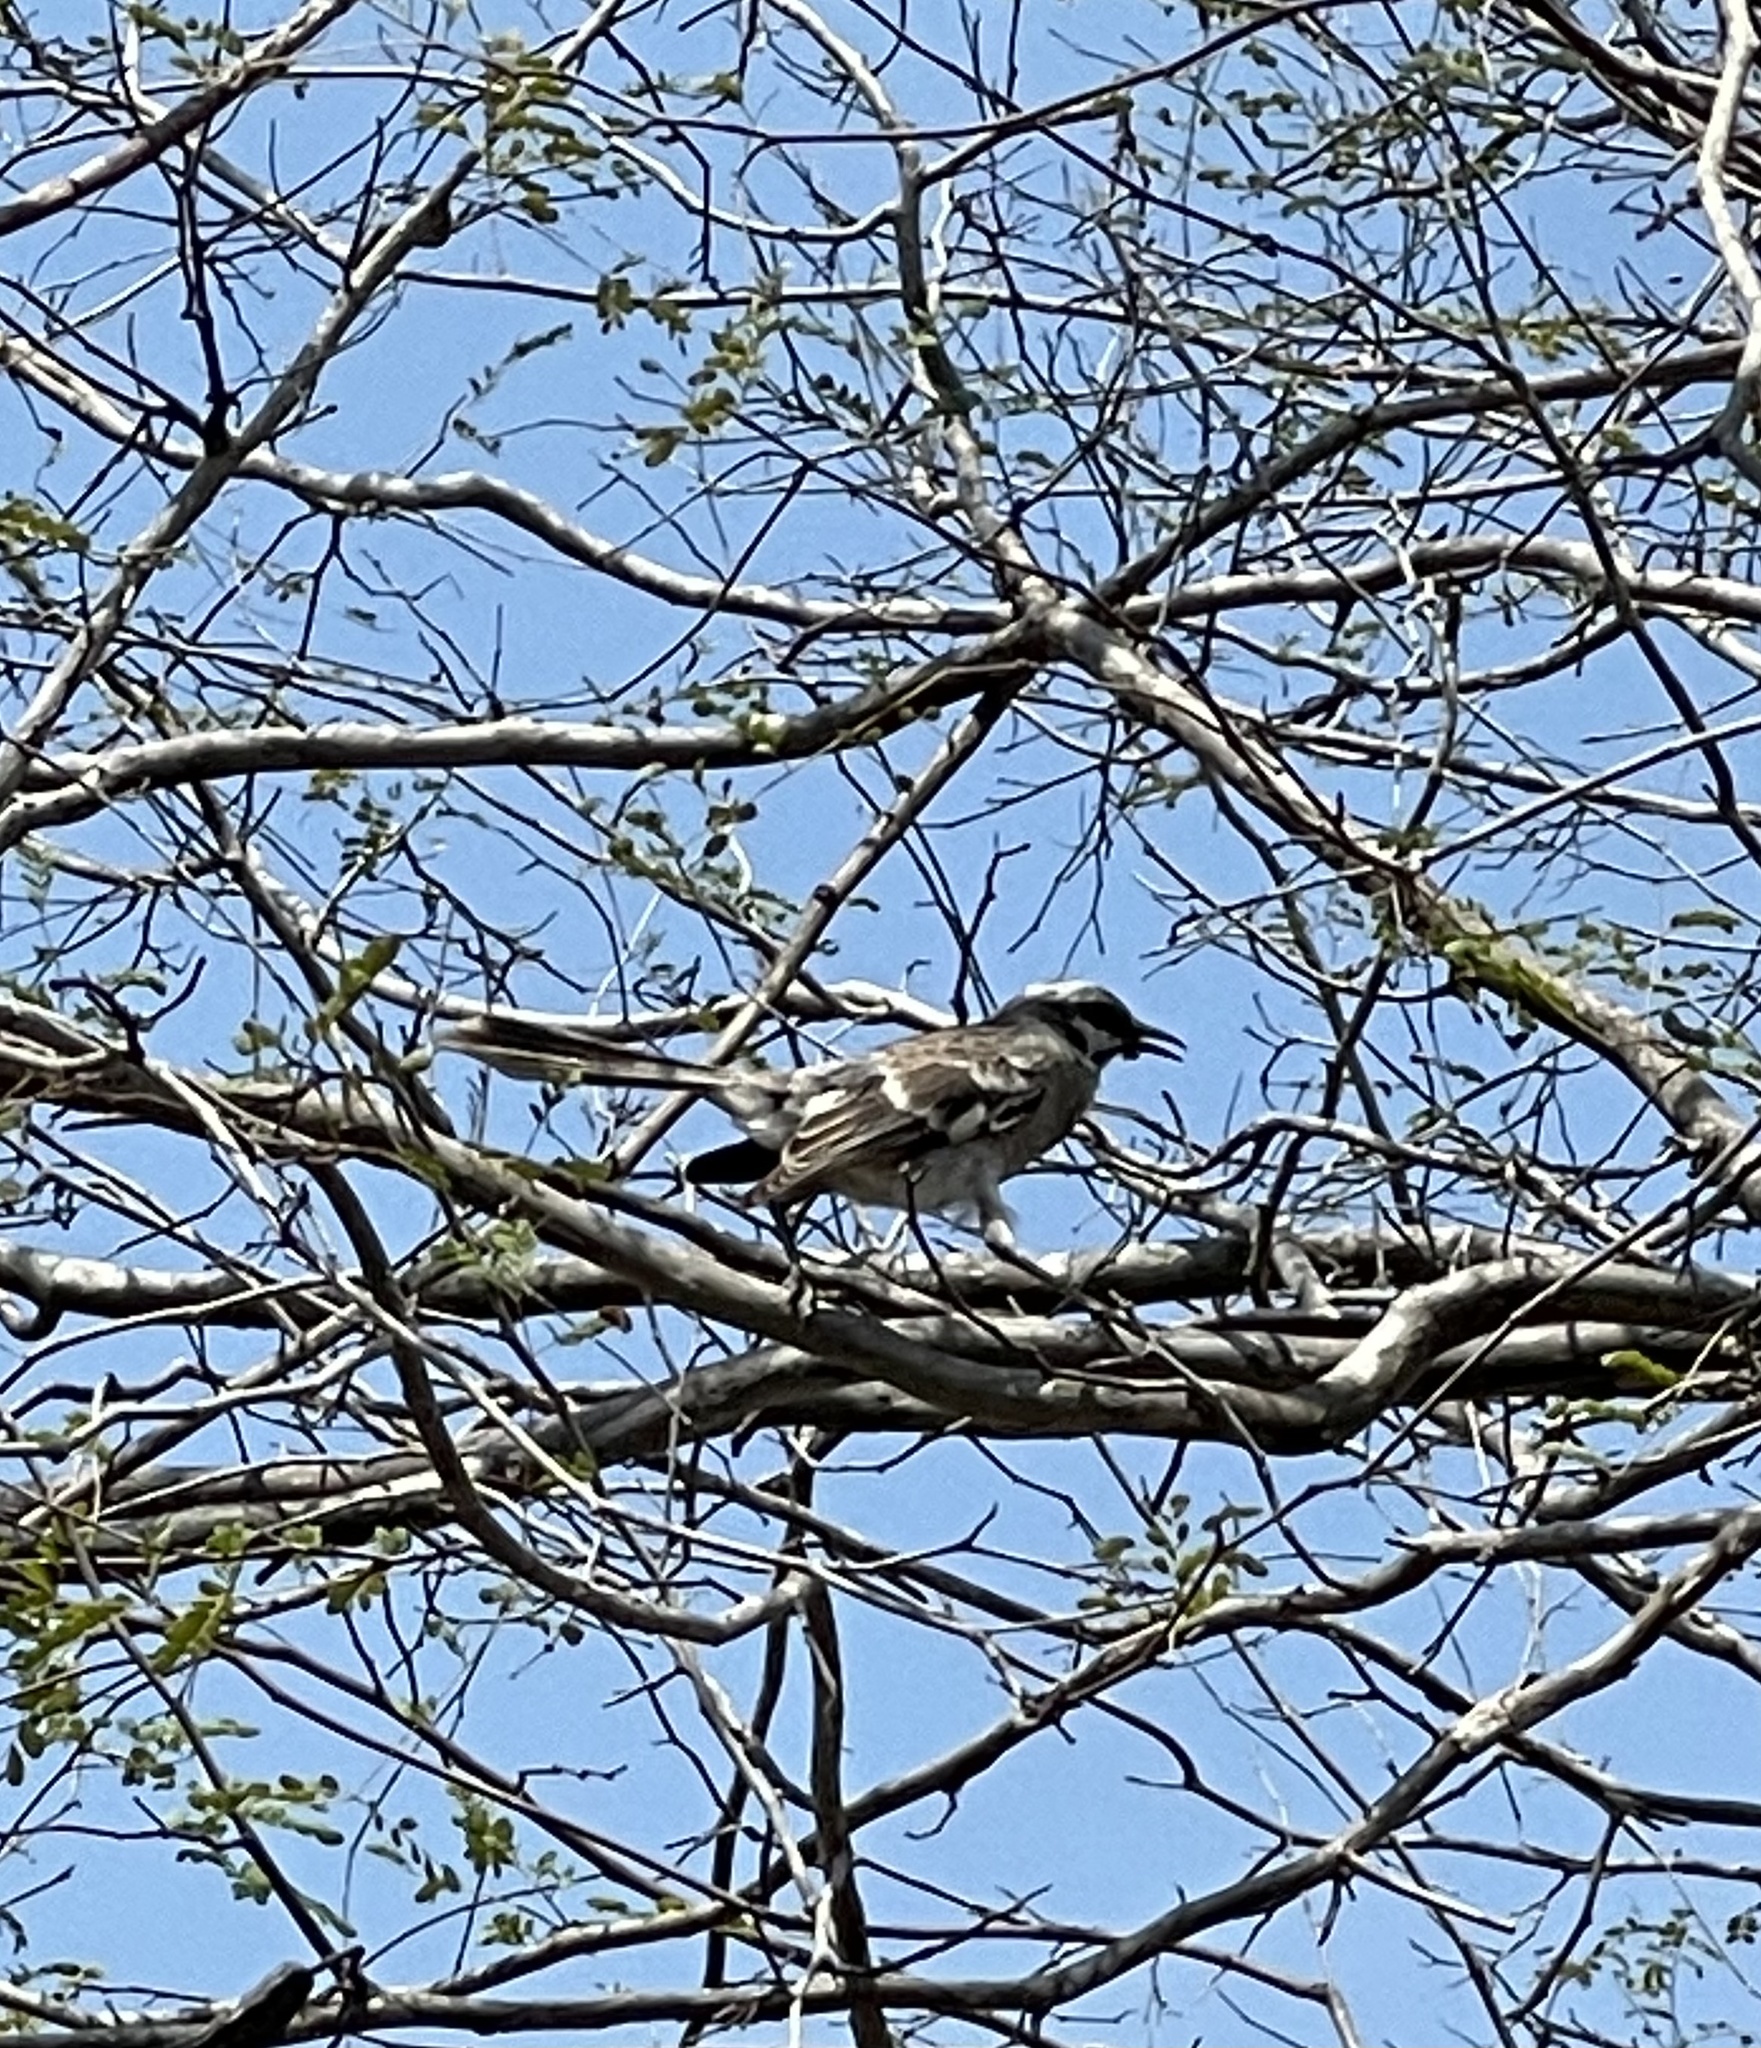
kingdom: Animalia
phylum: Chordata
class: Aves
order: Passeriformes
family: Mimidae
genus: Mimus
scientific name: Mimus longicaudatus
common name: Long-tailed mockingbird
